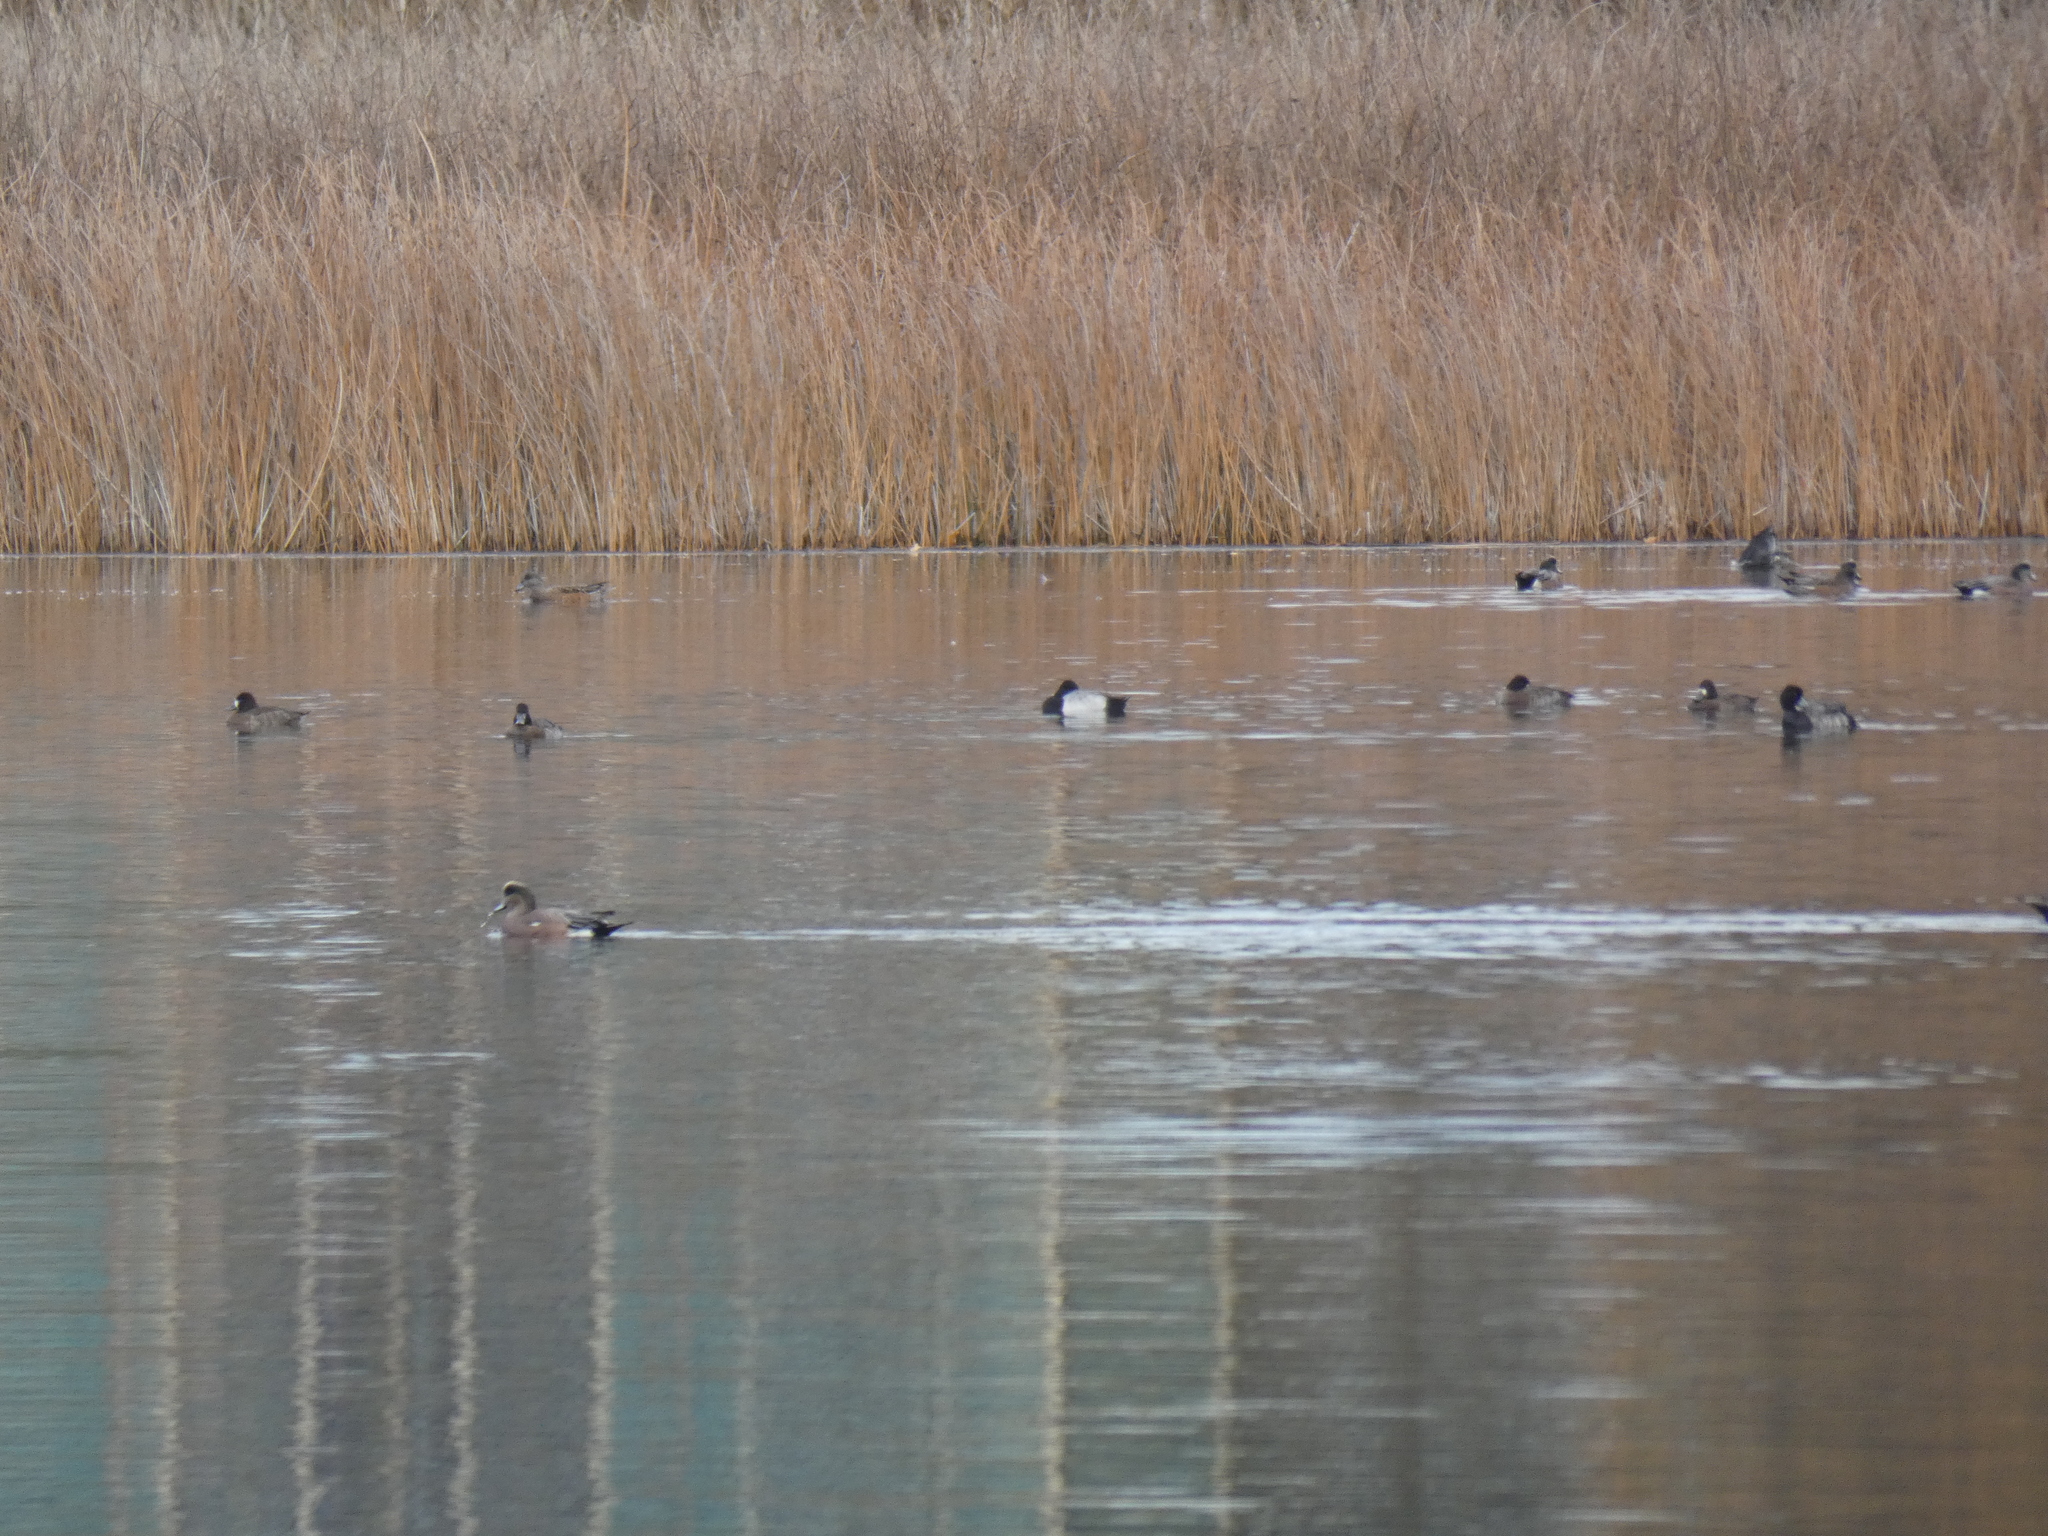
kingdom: Animalia
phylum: Chordata
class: Aves
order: Anseriformes
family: Anatidae
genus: Aythya
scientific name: Aythya affinis
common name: Lesser scaup
